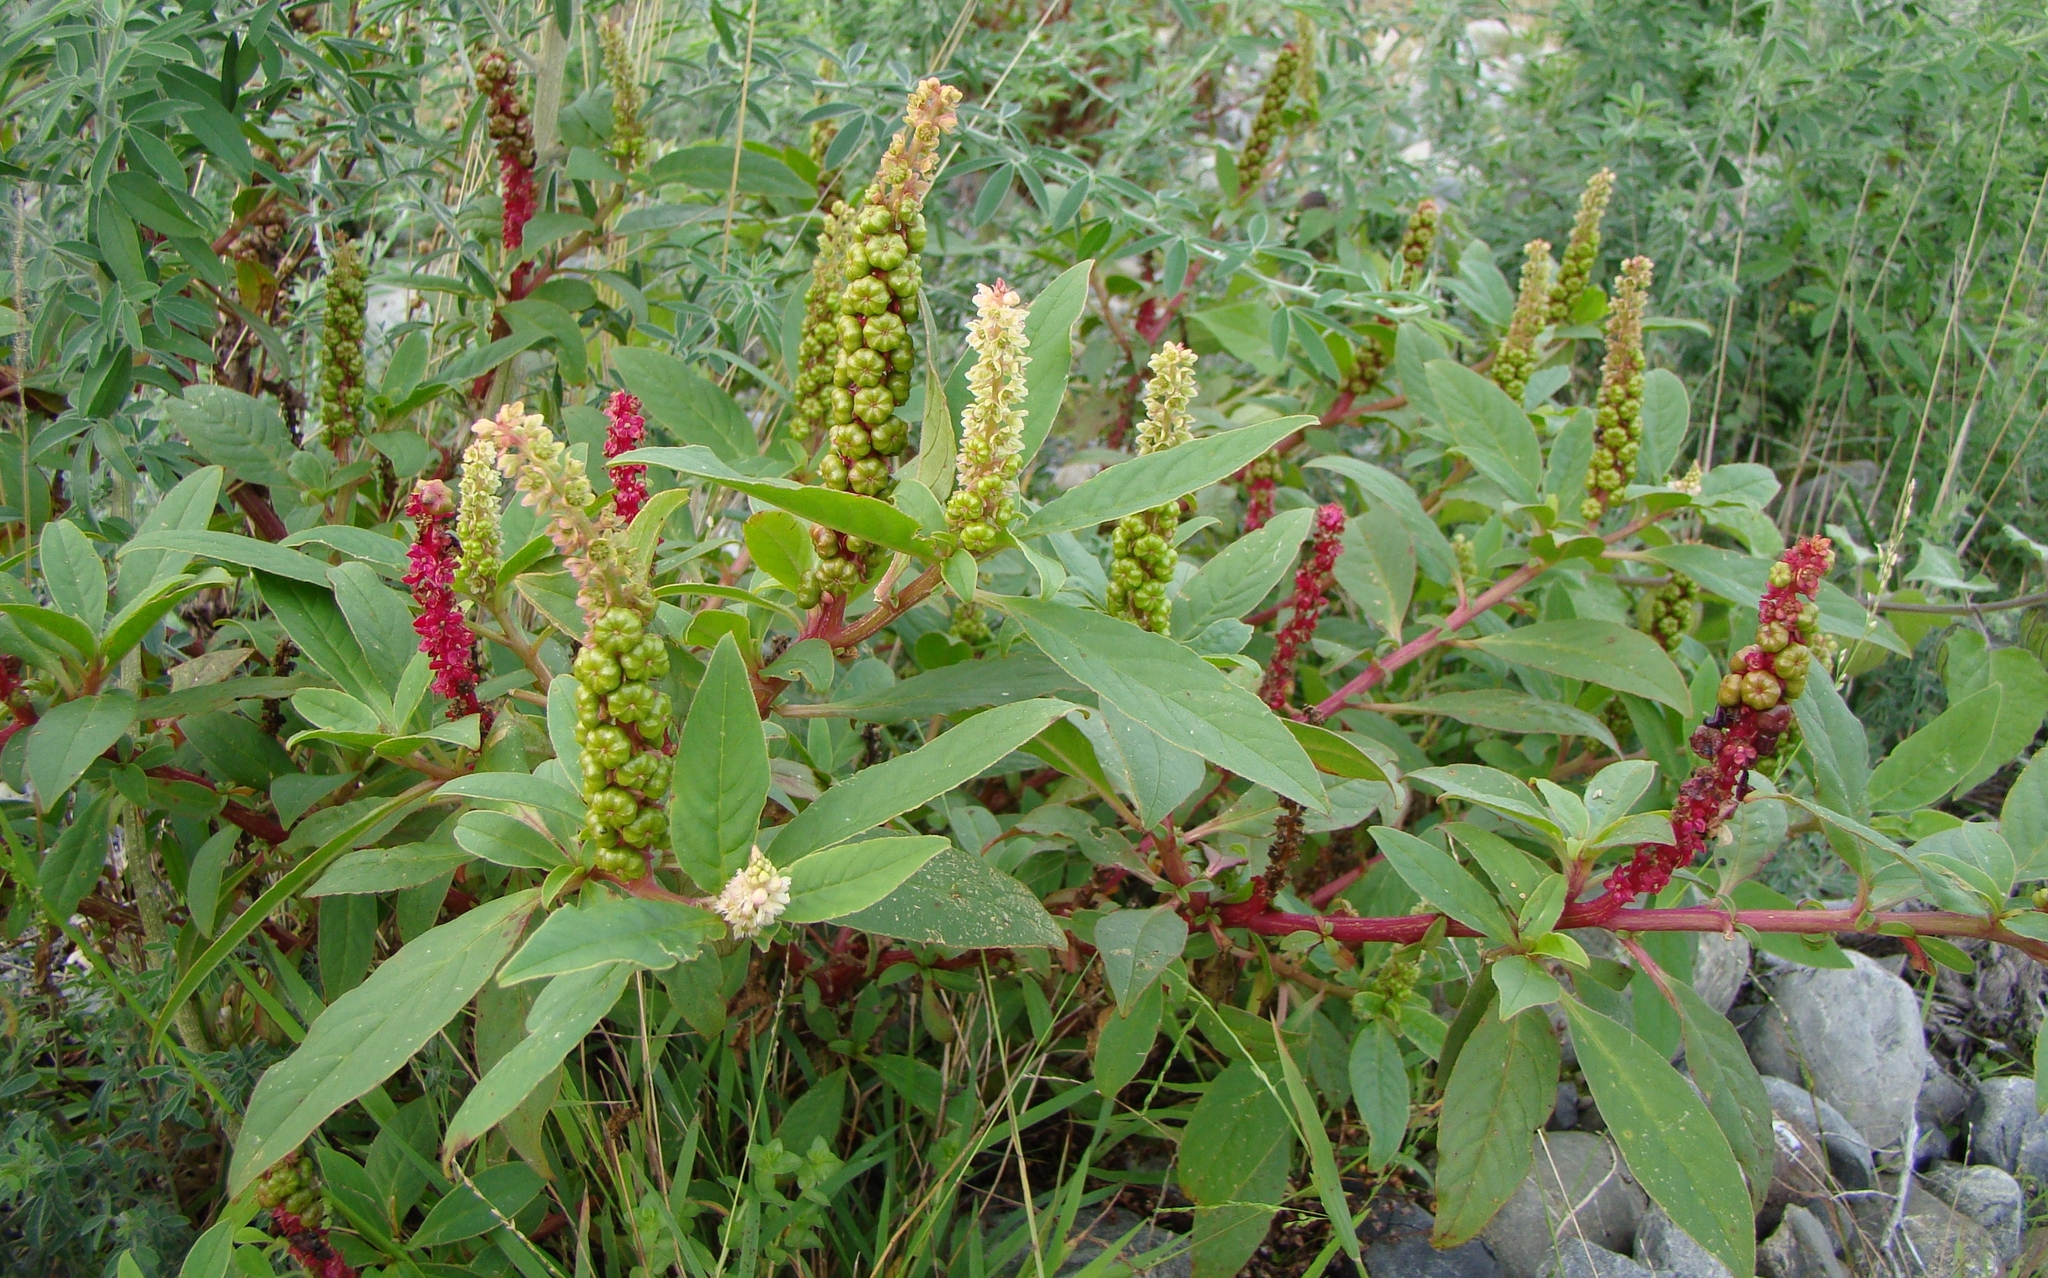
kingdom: Plantae
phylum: Tracheophyta
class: Magnoliopsida
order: Caryophyllales
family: Phytolaccaceae
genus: Phytolacca
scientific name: Phytolacca icosandra
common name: Button pokeweed
